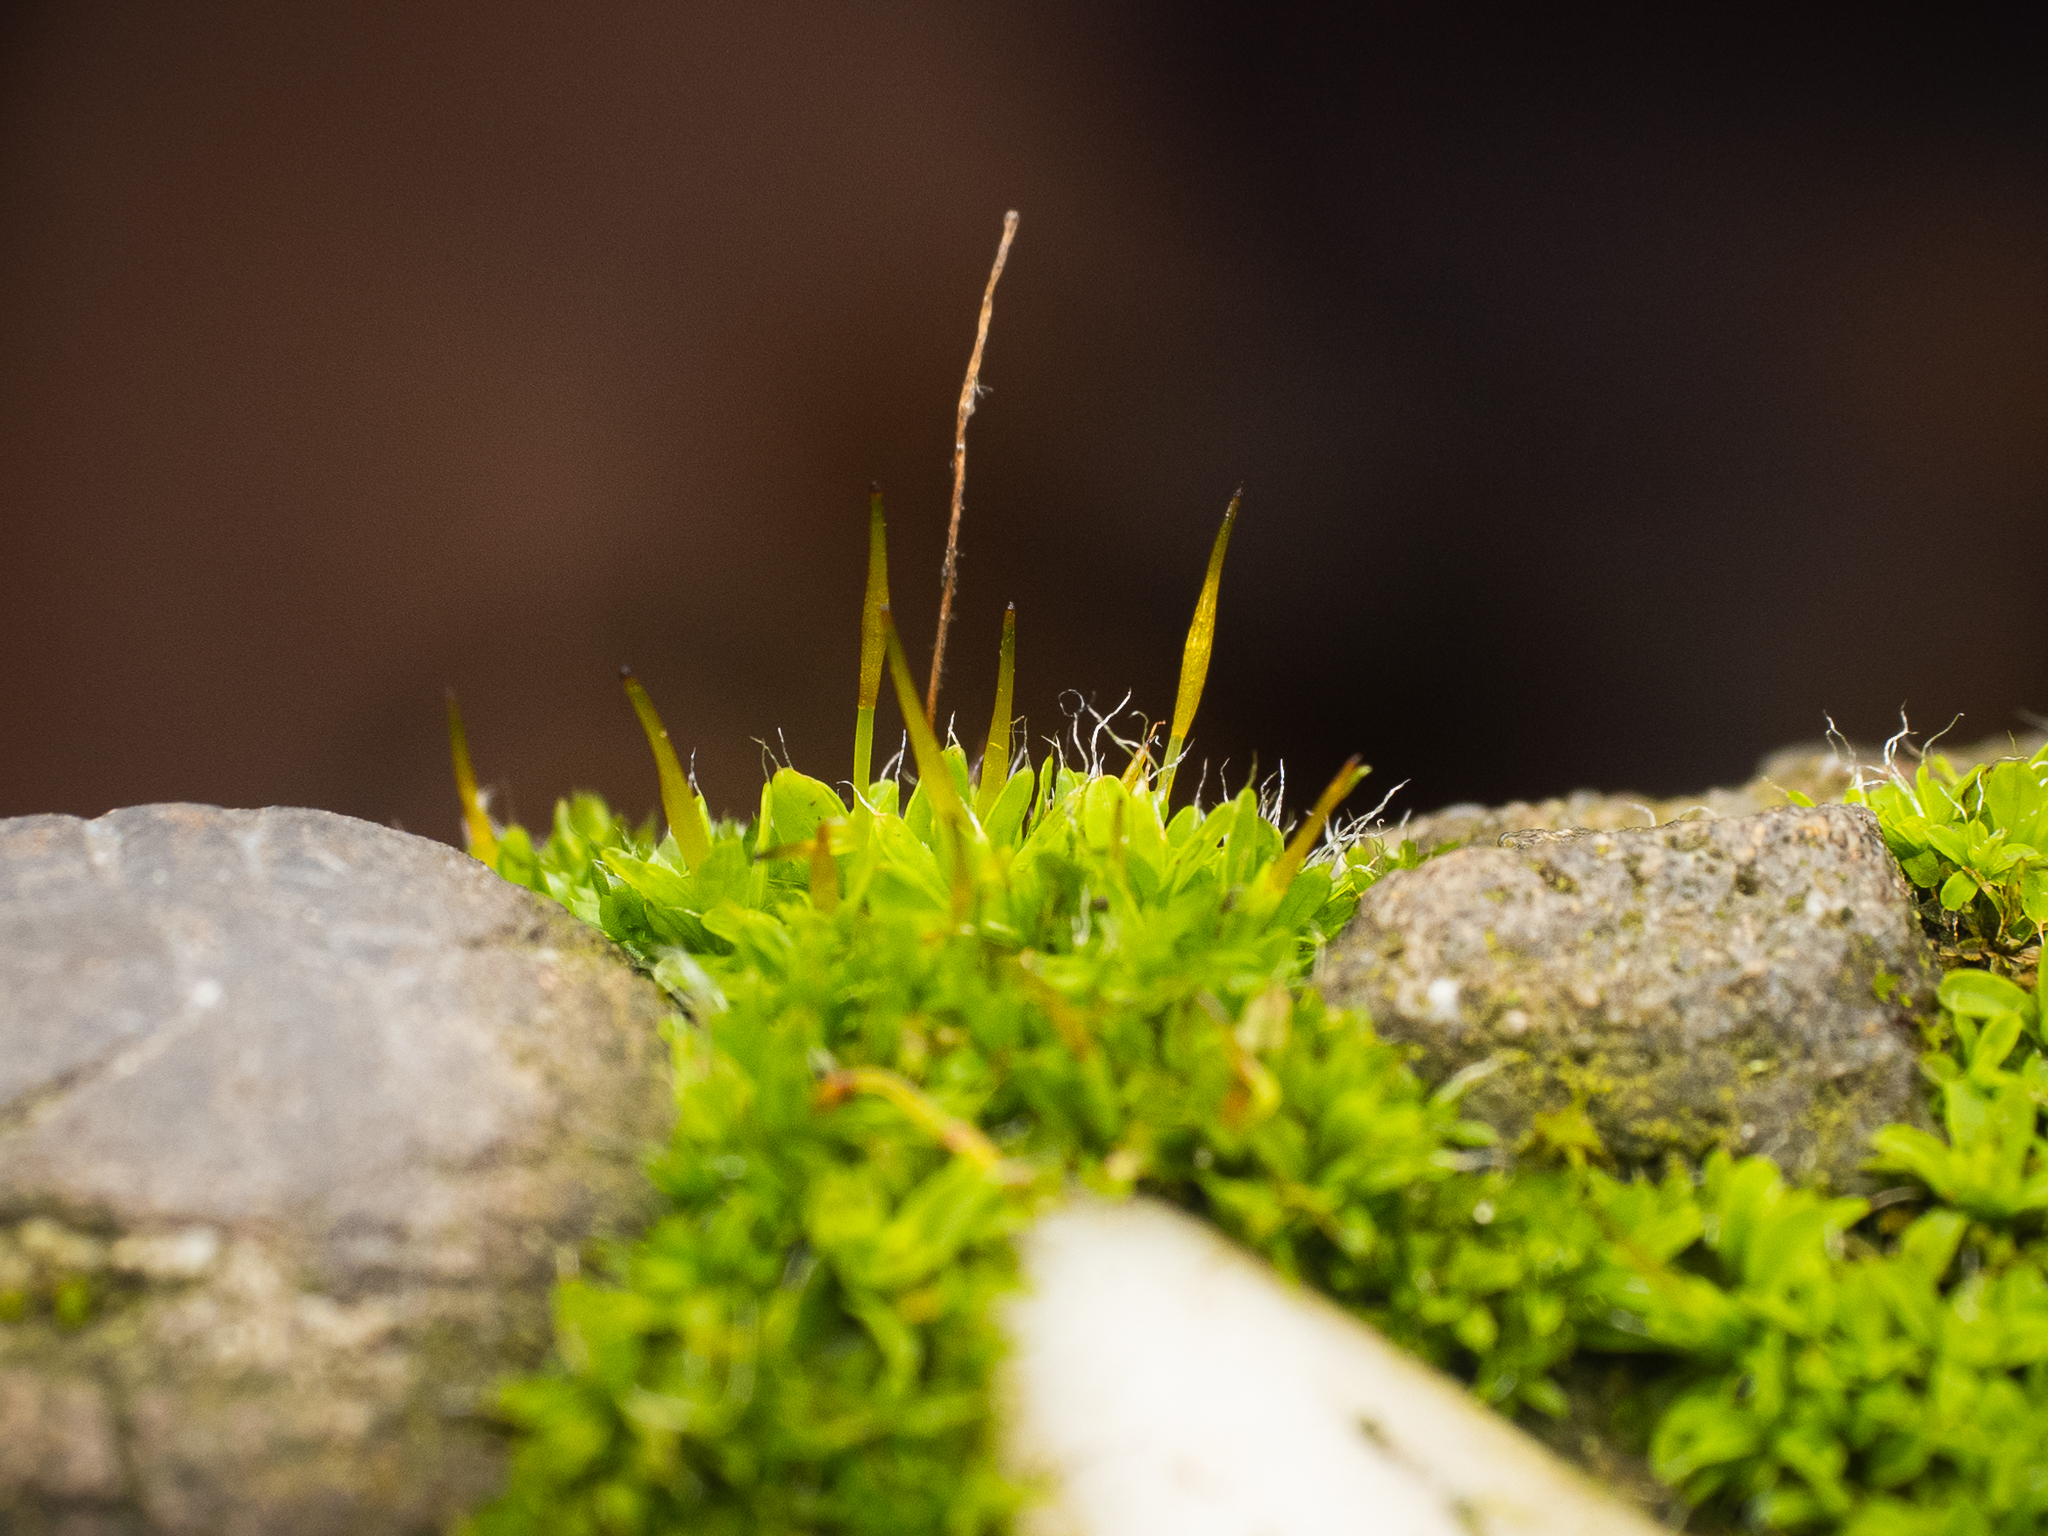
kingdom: Plantae
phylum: Bryophyta
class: Bryopsida
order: Pottiales
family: Pottiaceae
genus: Tortula
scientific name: Tortula muralis
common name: Wall screw-moss
